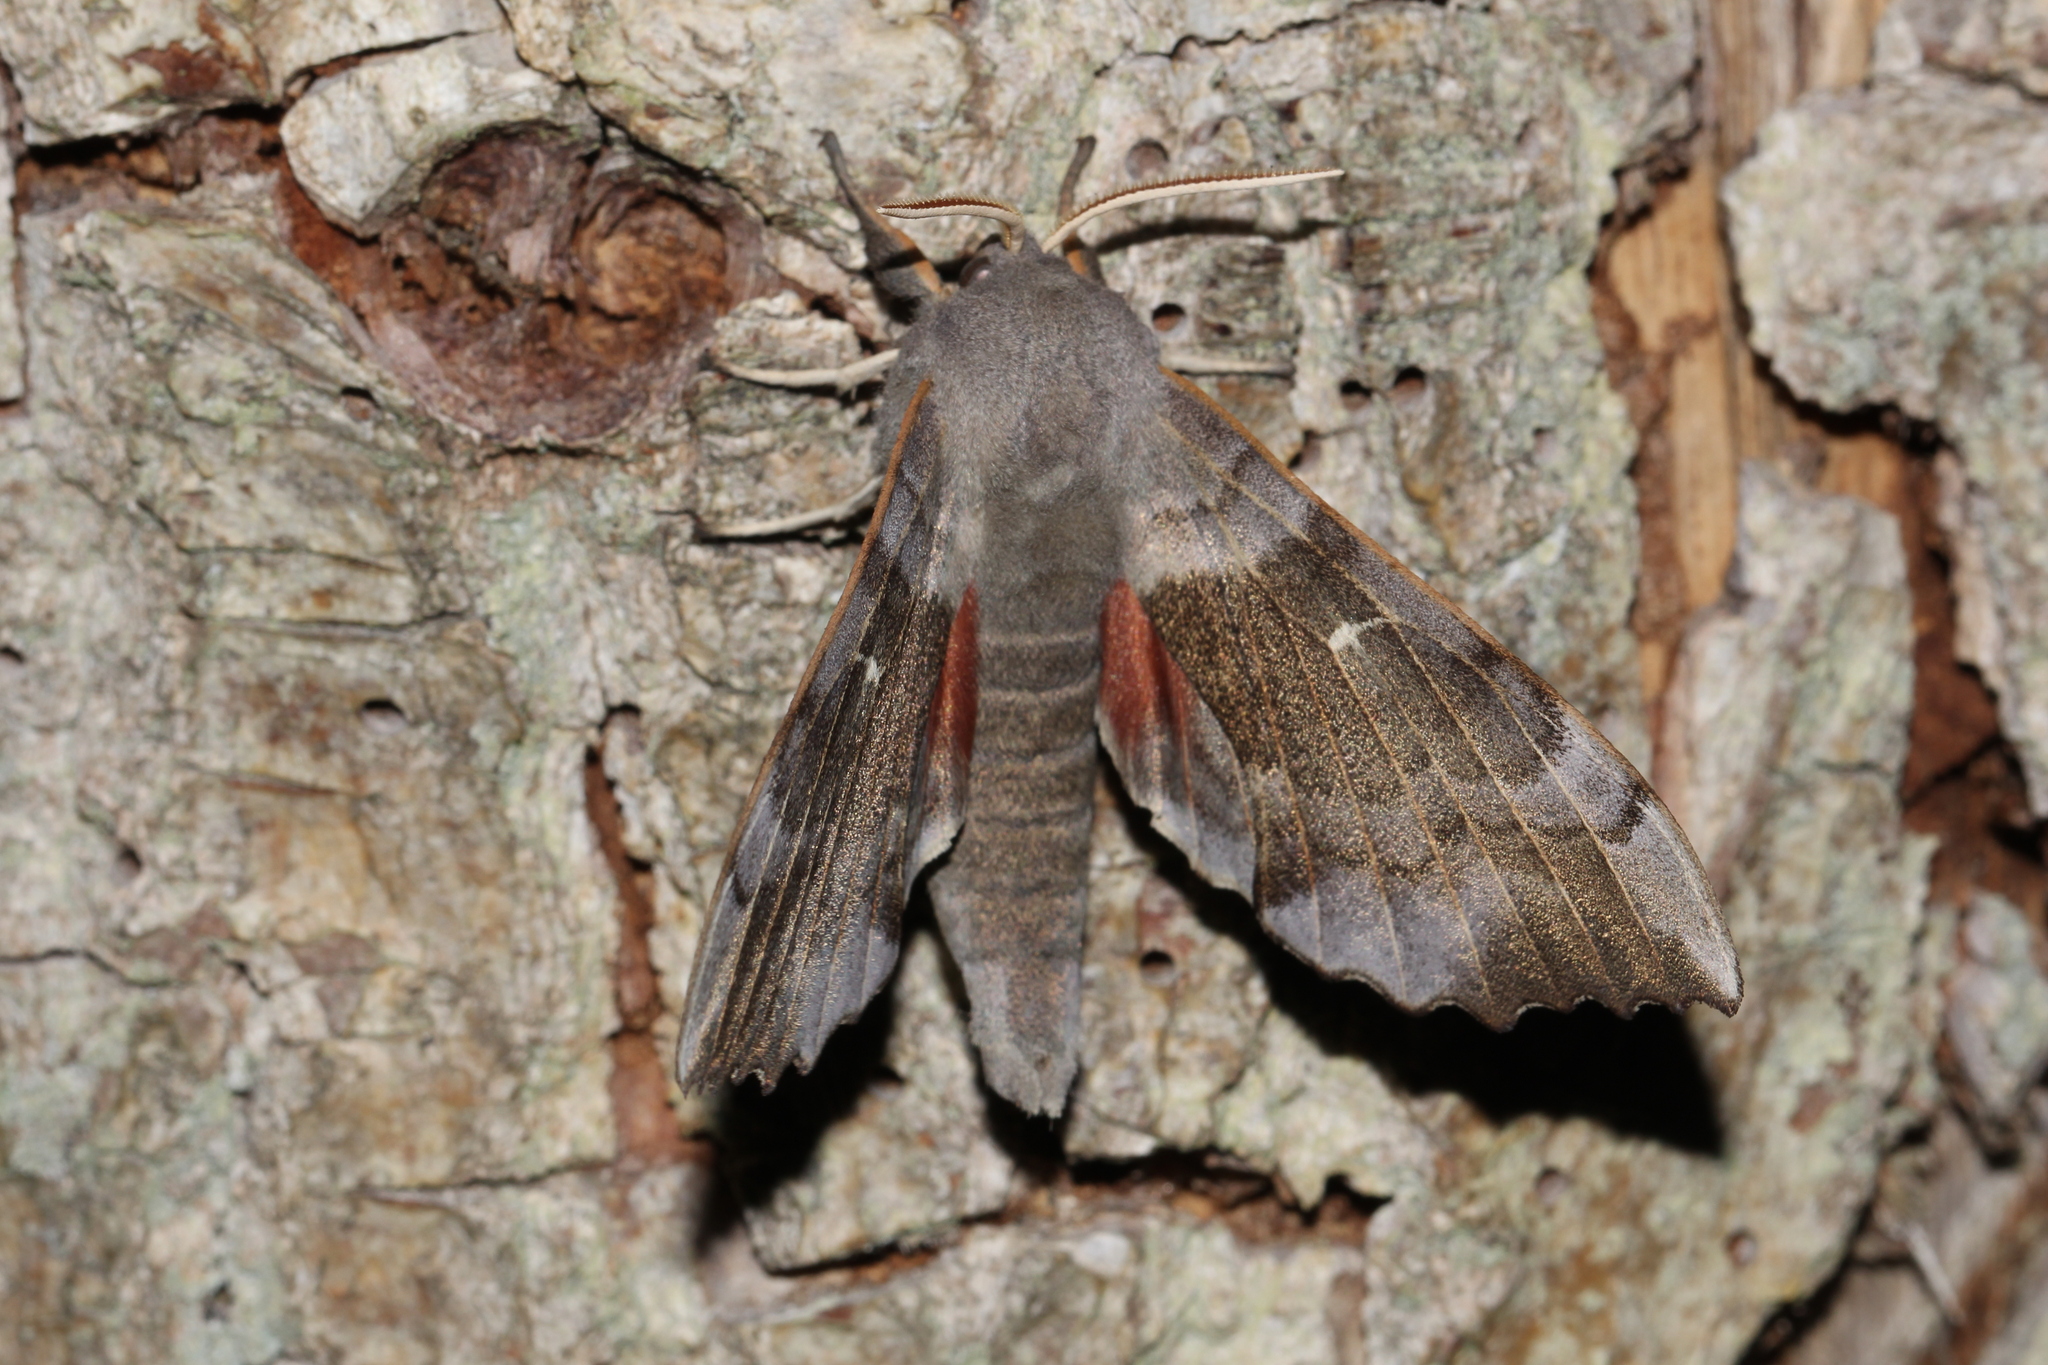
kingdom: Animalia
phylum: Arthropoda
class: Insecta
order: Lepidoptera
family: Sphingidae
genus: Laothoe
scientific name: Laothoe populi
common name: Poplar hawk-moth
